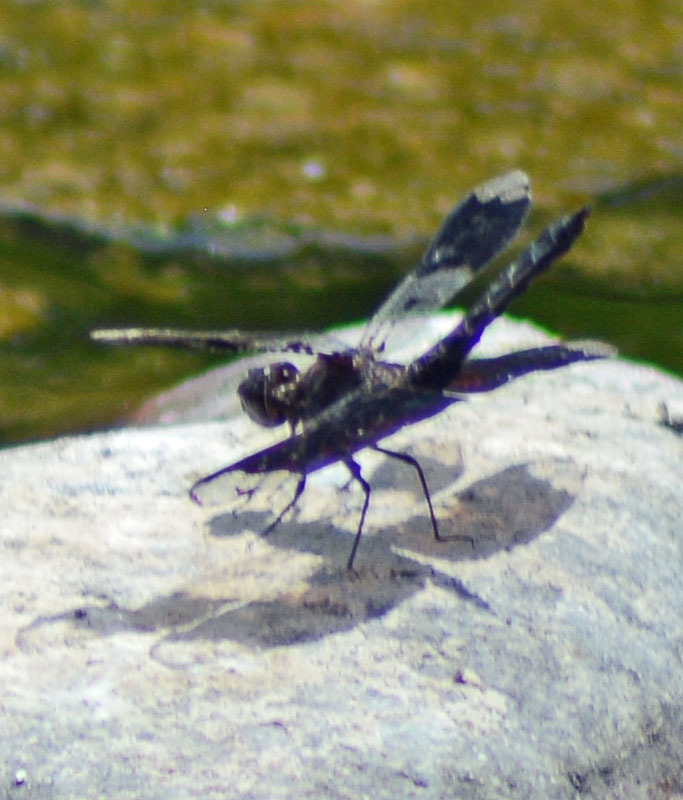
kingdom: Animalia
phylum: Arthropoda
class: Insecta
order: Odonata
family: Libellulidae
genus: Pseudoleon
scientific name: Pseudoleon superbus
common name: Filigree skimmer
